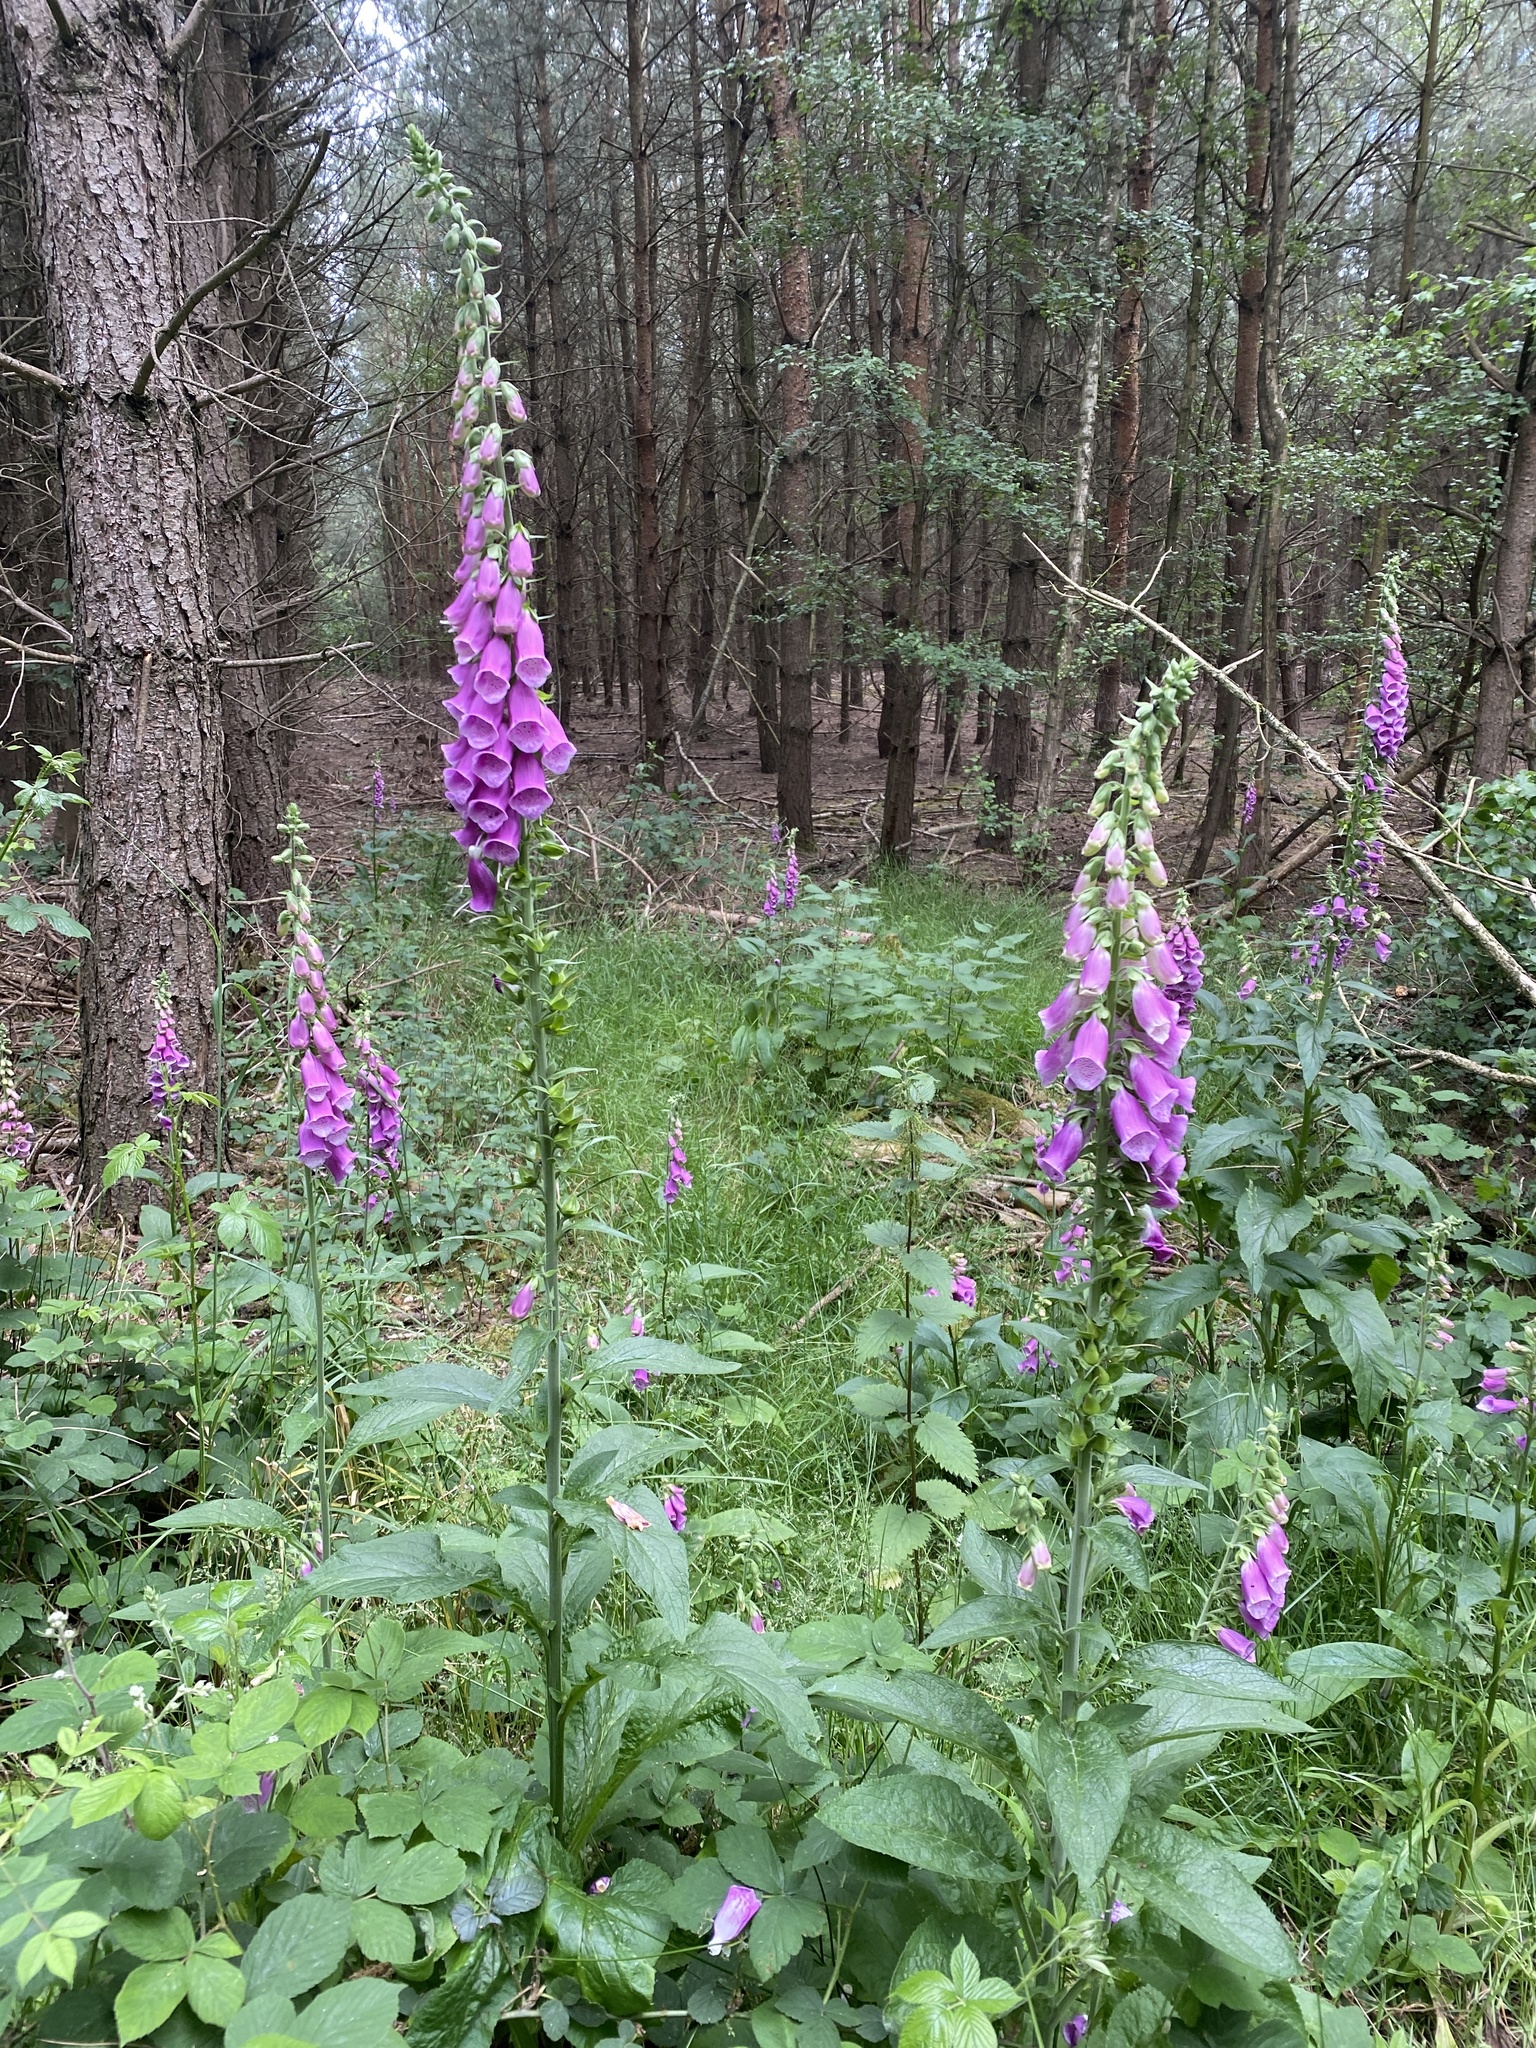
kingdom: Plantae
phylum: Tracheophyta
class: Magnoliopsida
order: Lamiales
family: Plantaginaceae
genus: Digitalis
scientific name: Digitalis purpurea
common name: Foxglove
